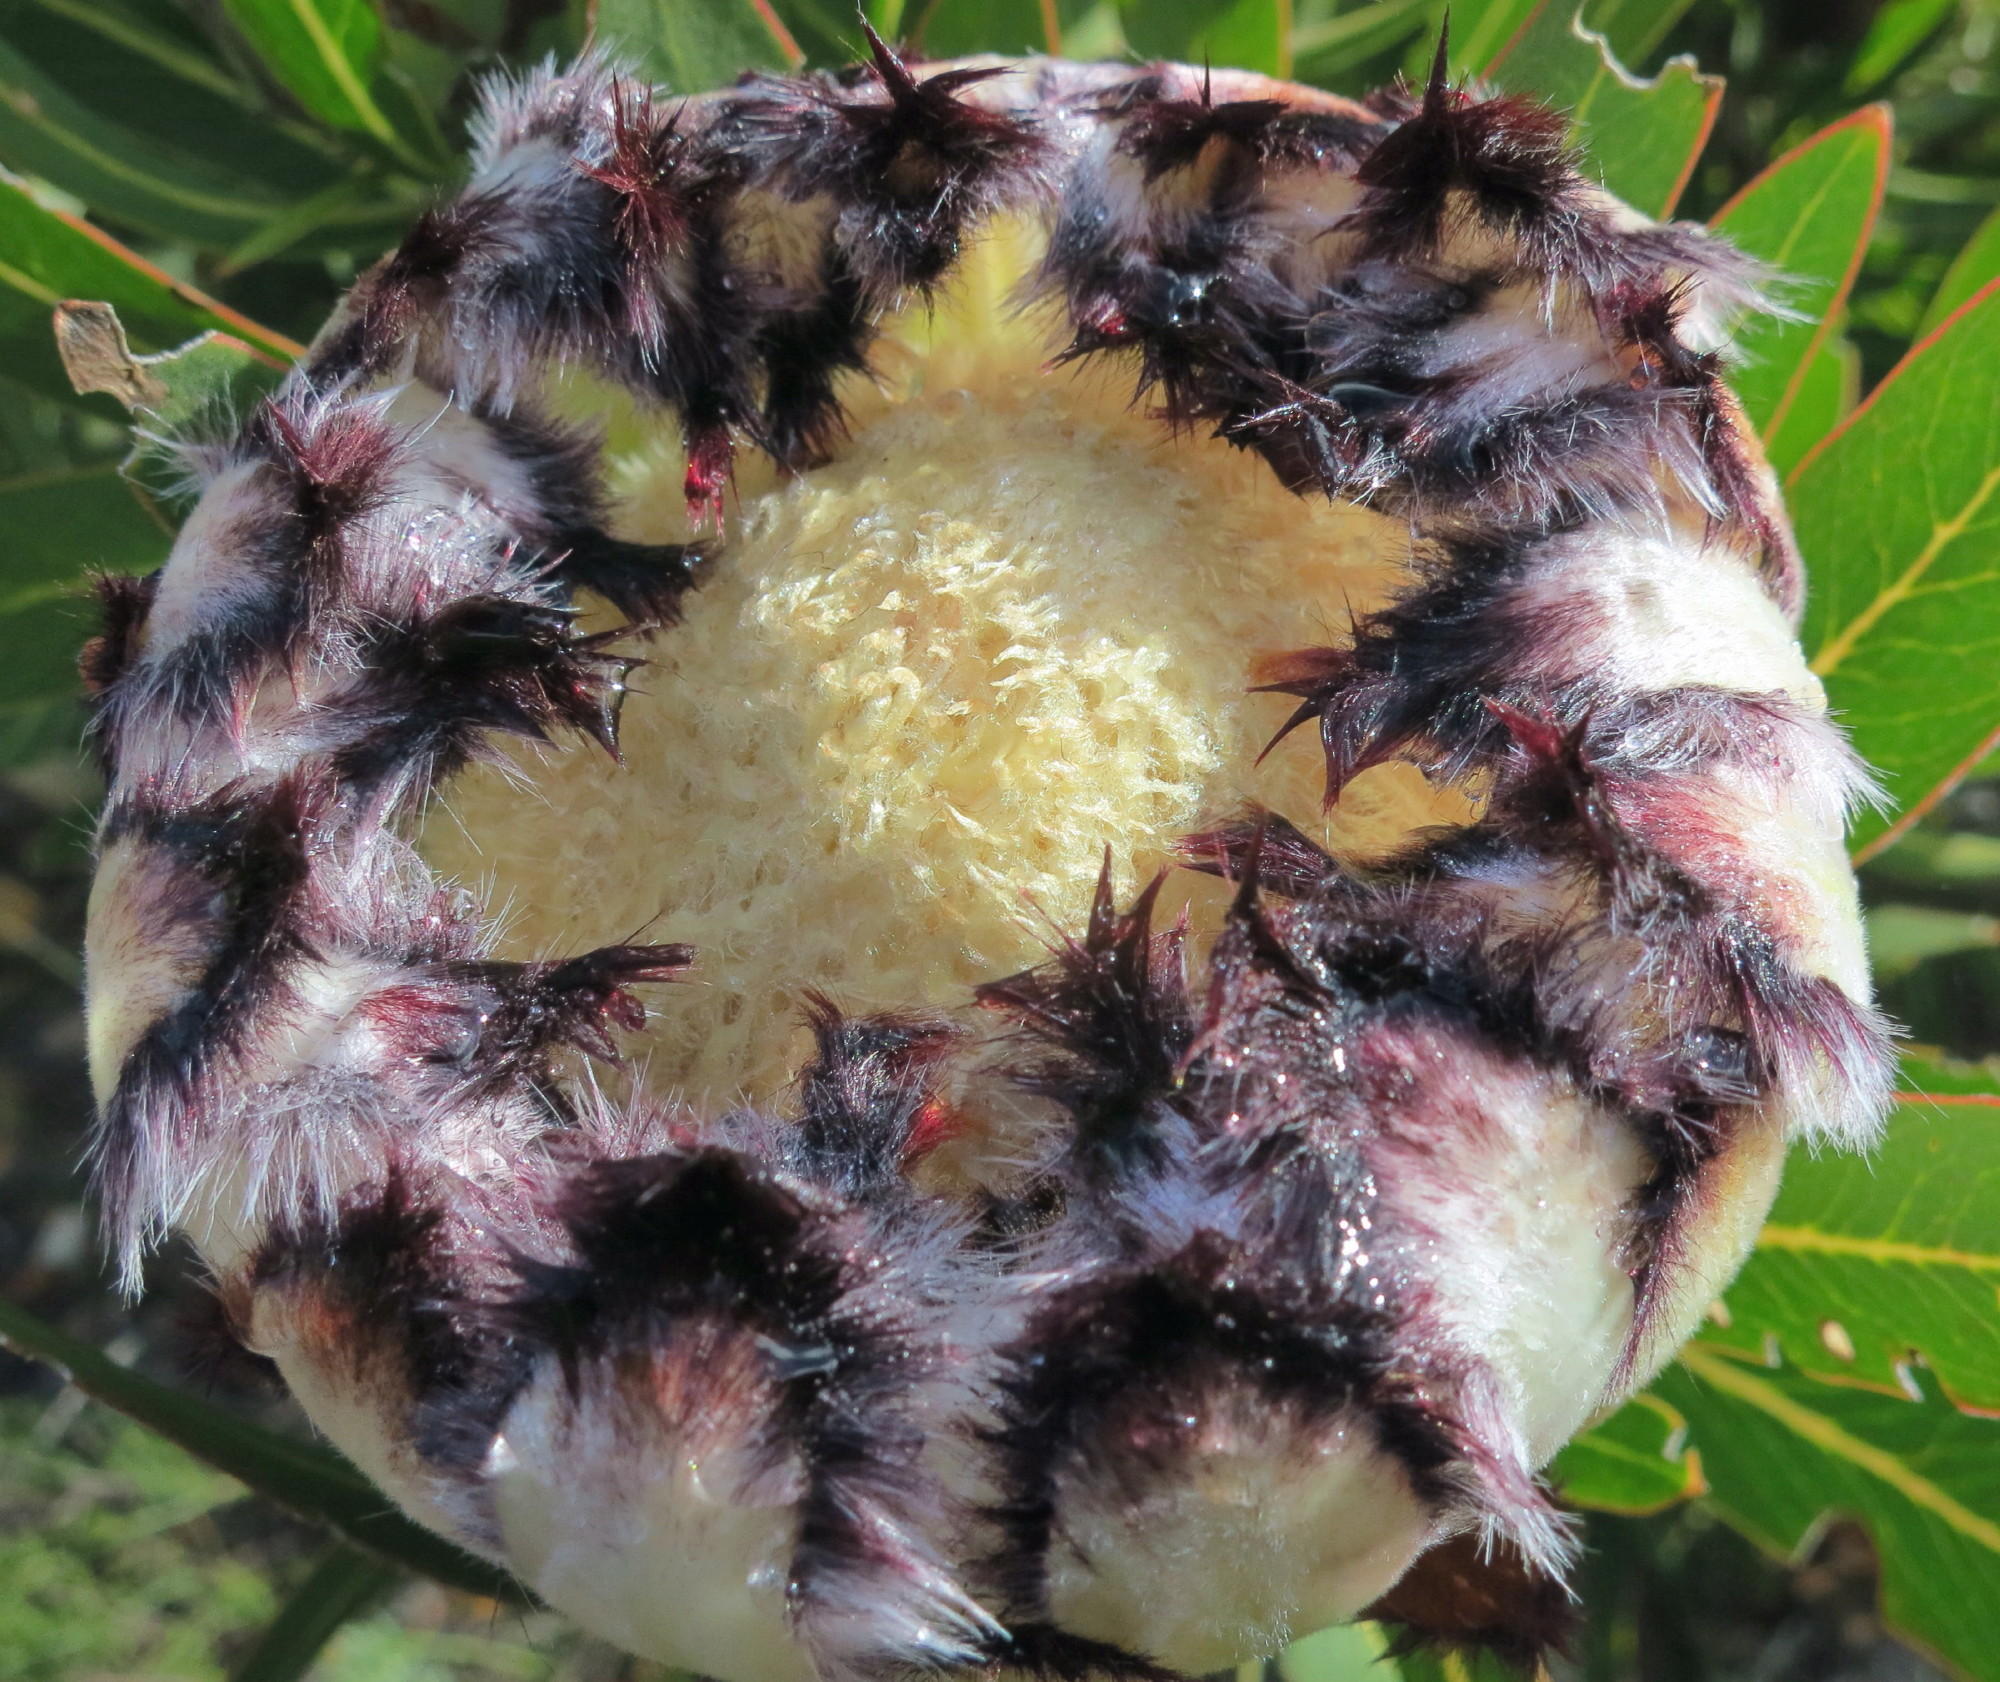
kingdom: Plantae
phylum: Tracheophyta
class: Magnoliopsida
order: Proteales
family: Proteaceae
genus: Protea
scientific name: Protea neriifolia
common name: Blue sugarbush
